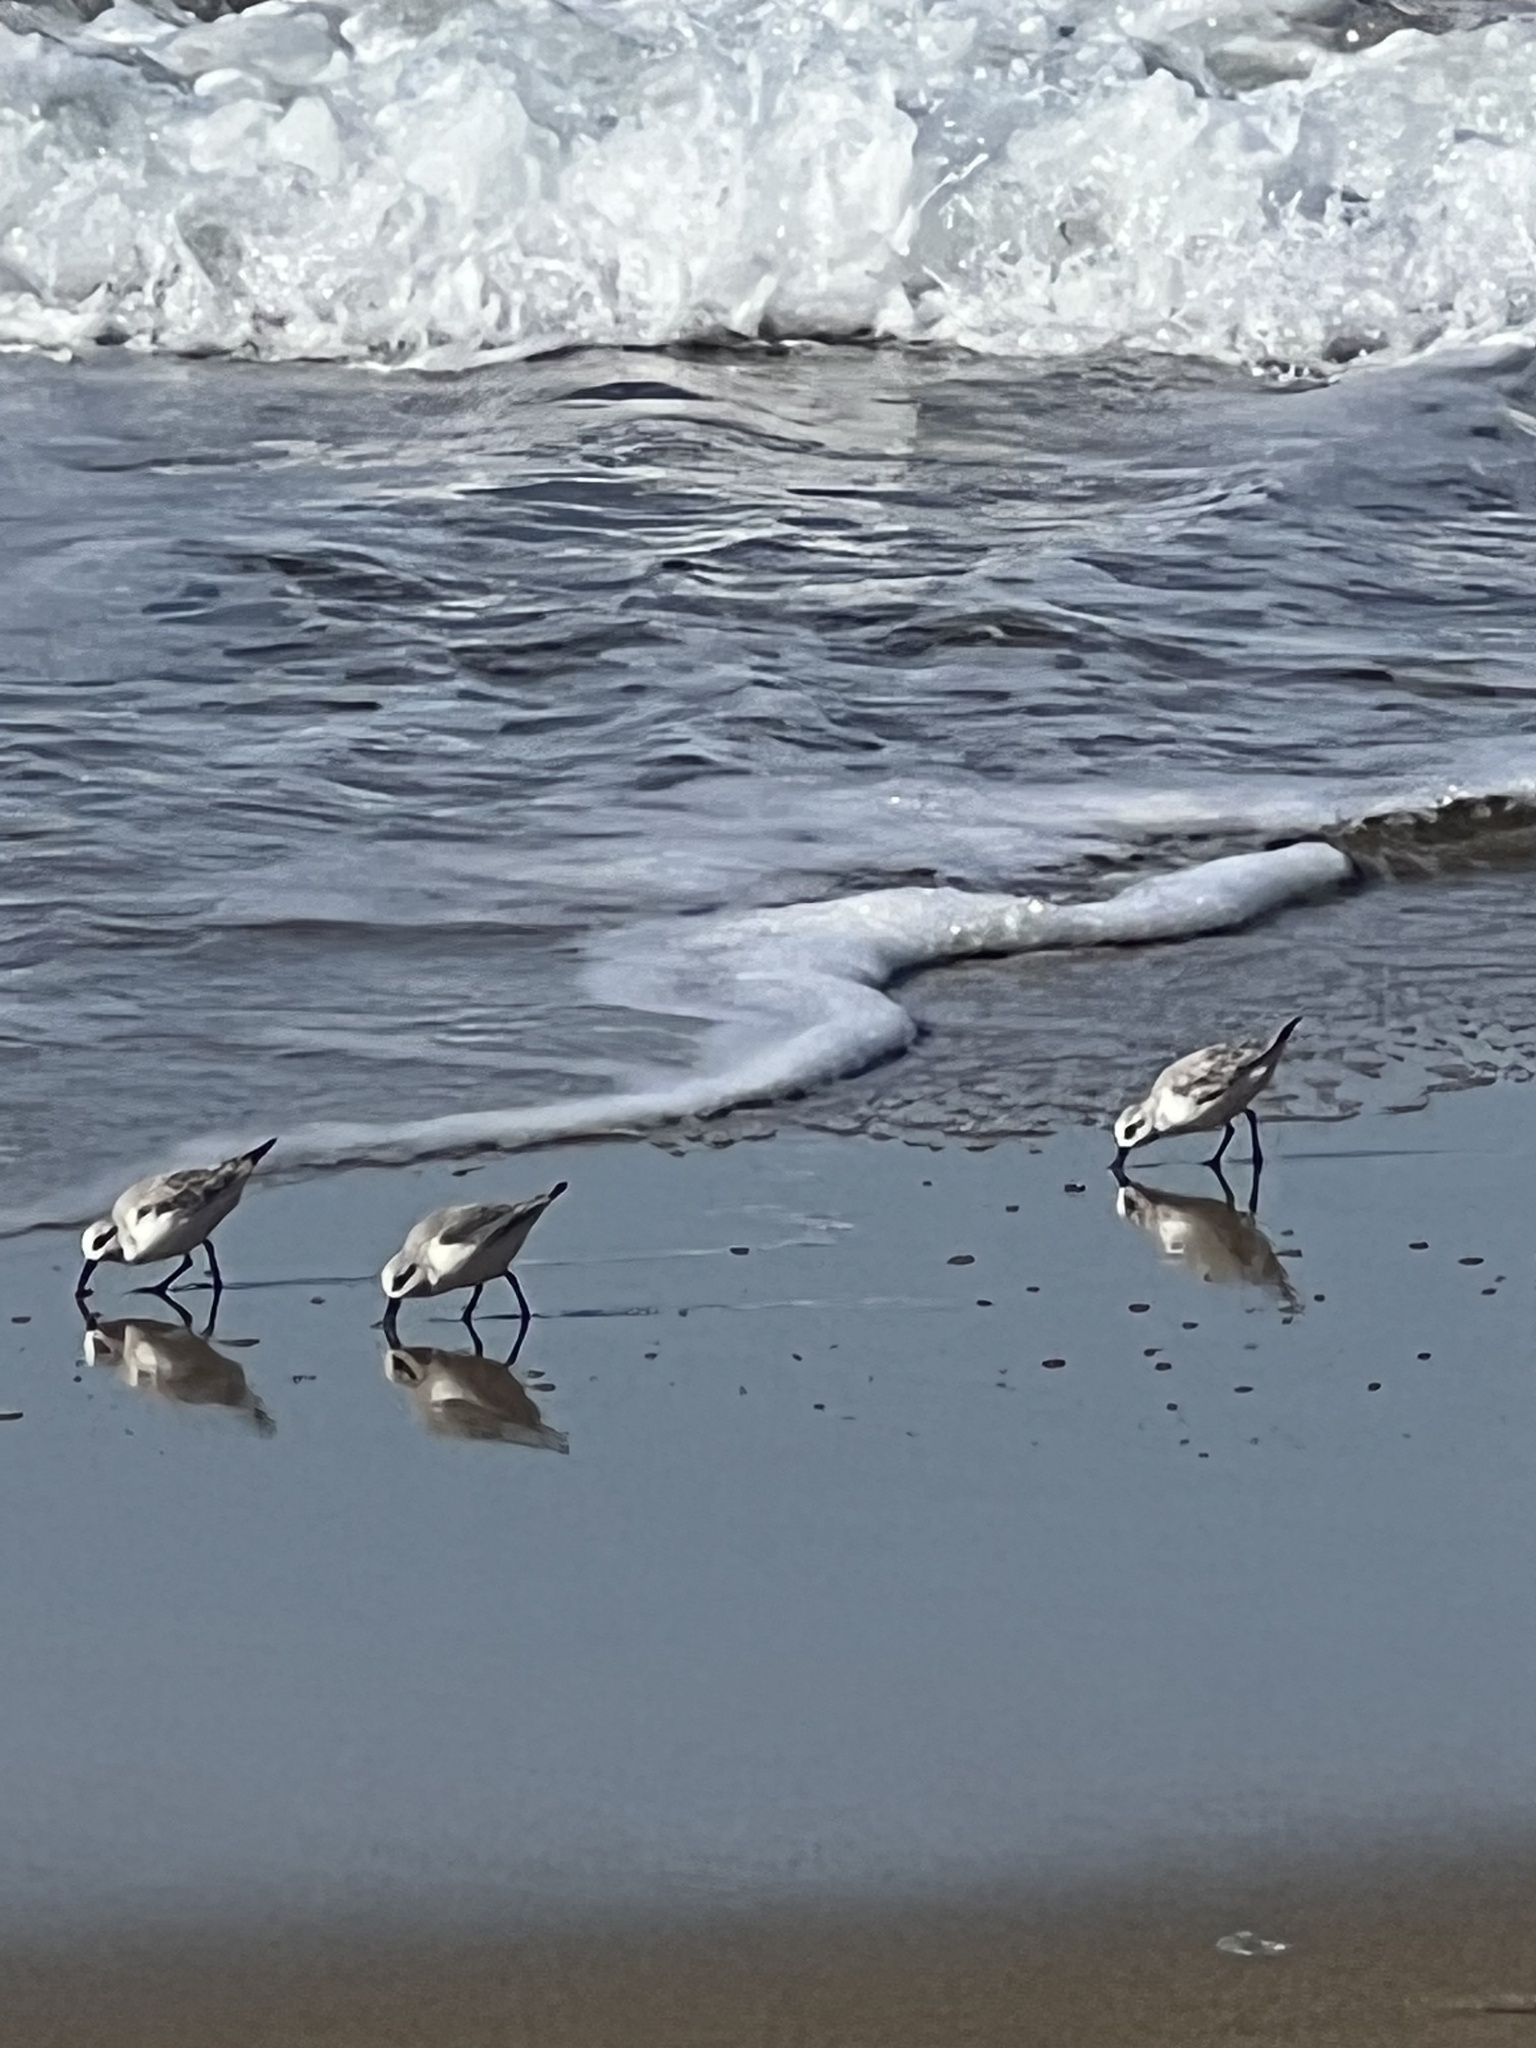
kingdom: Animalia
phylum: Chordata
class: Aves
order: Charadriiformes
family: Scolopacidae
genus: Calidris
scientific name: Calidris alba
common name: Sanderling
